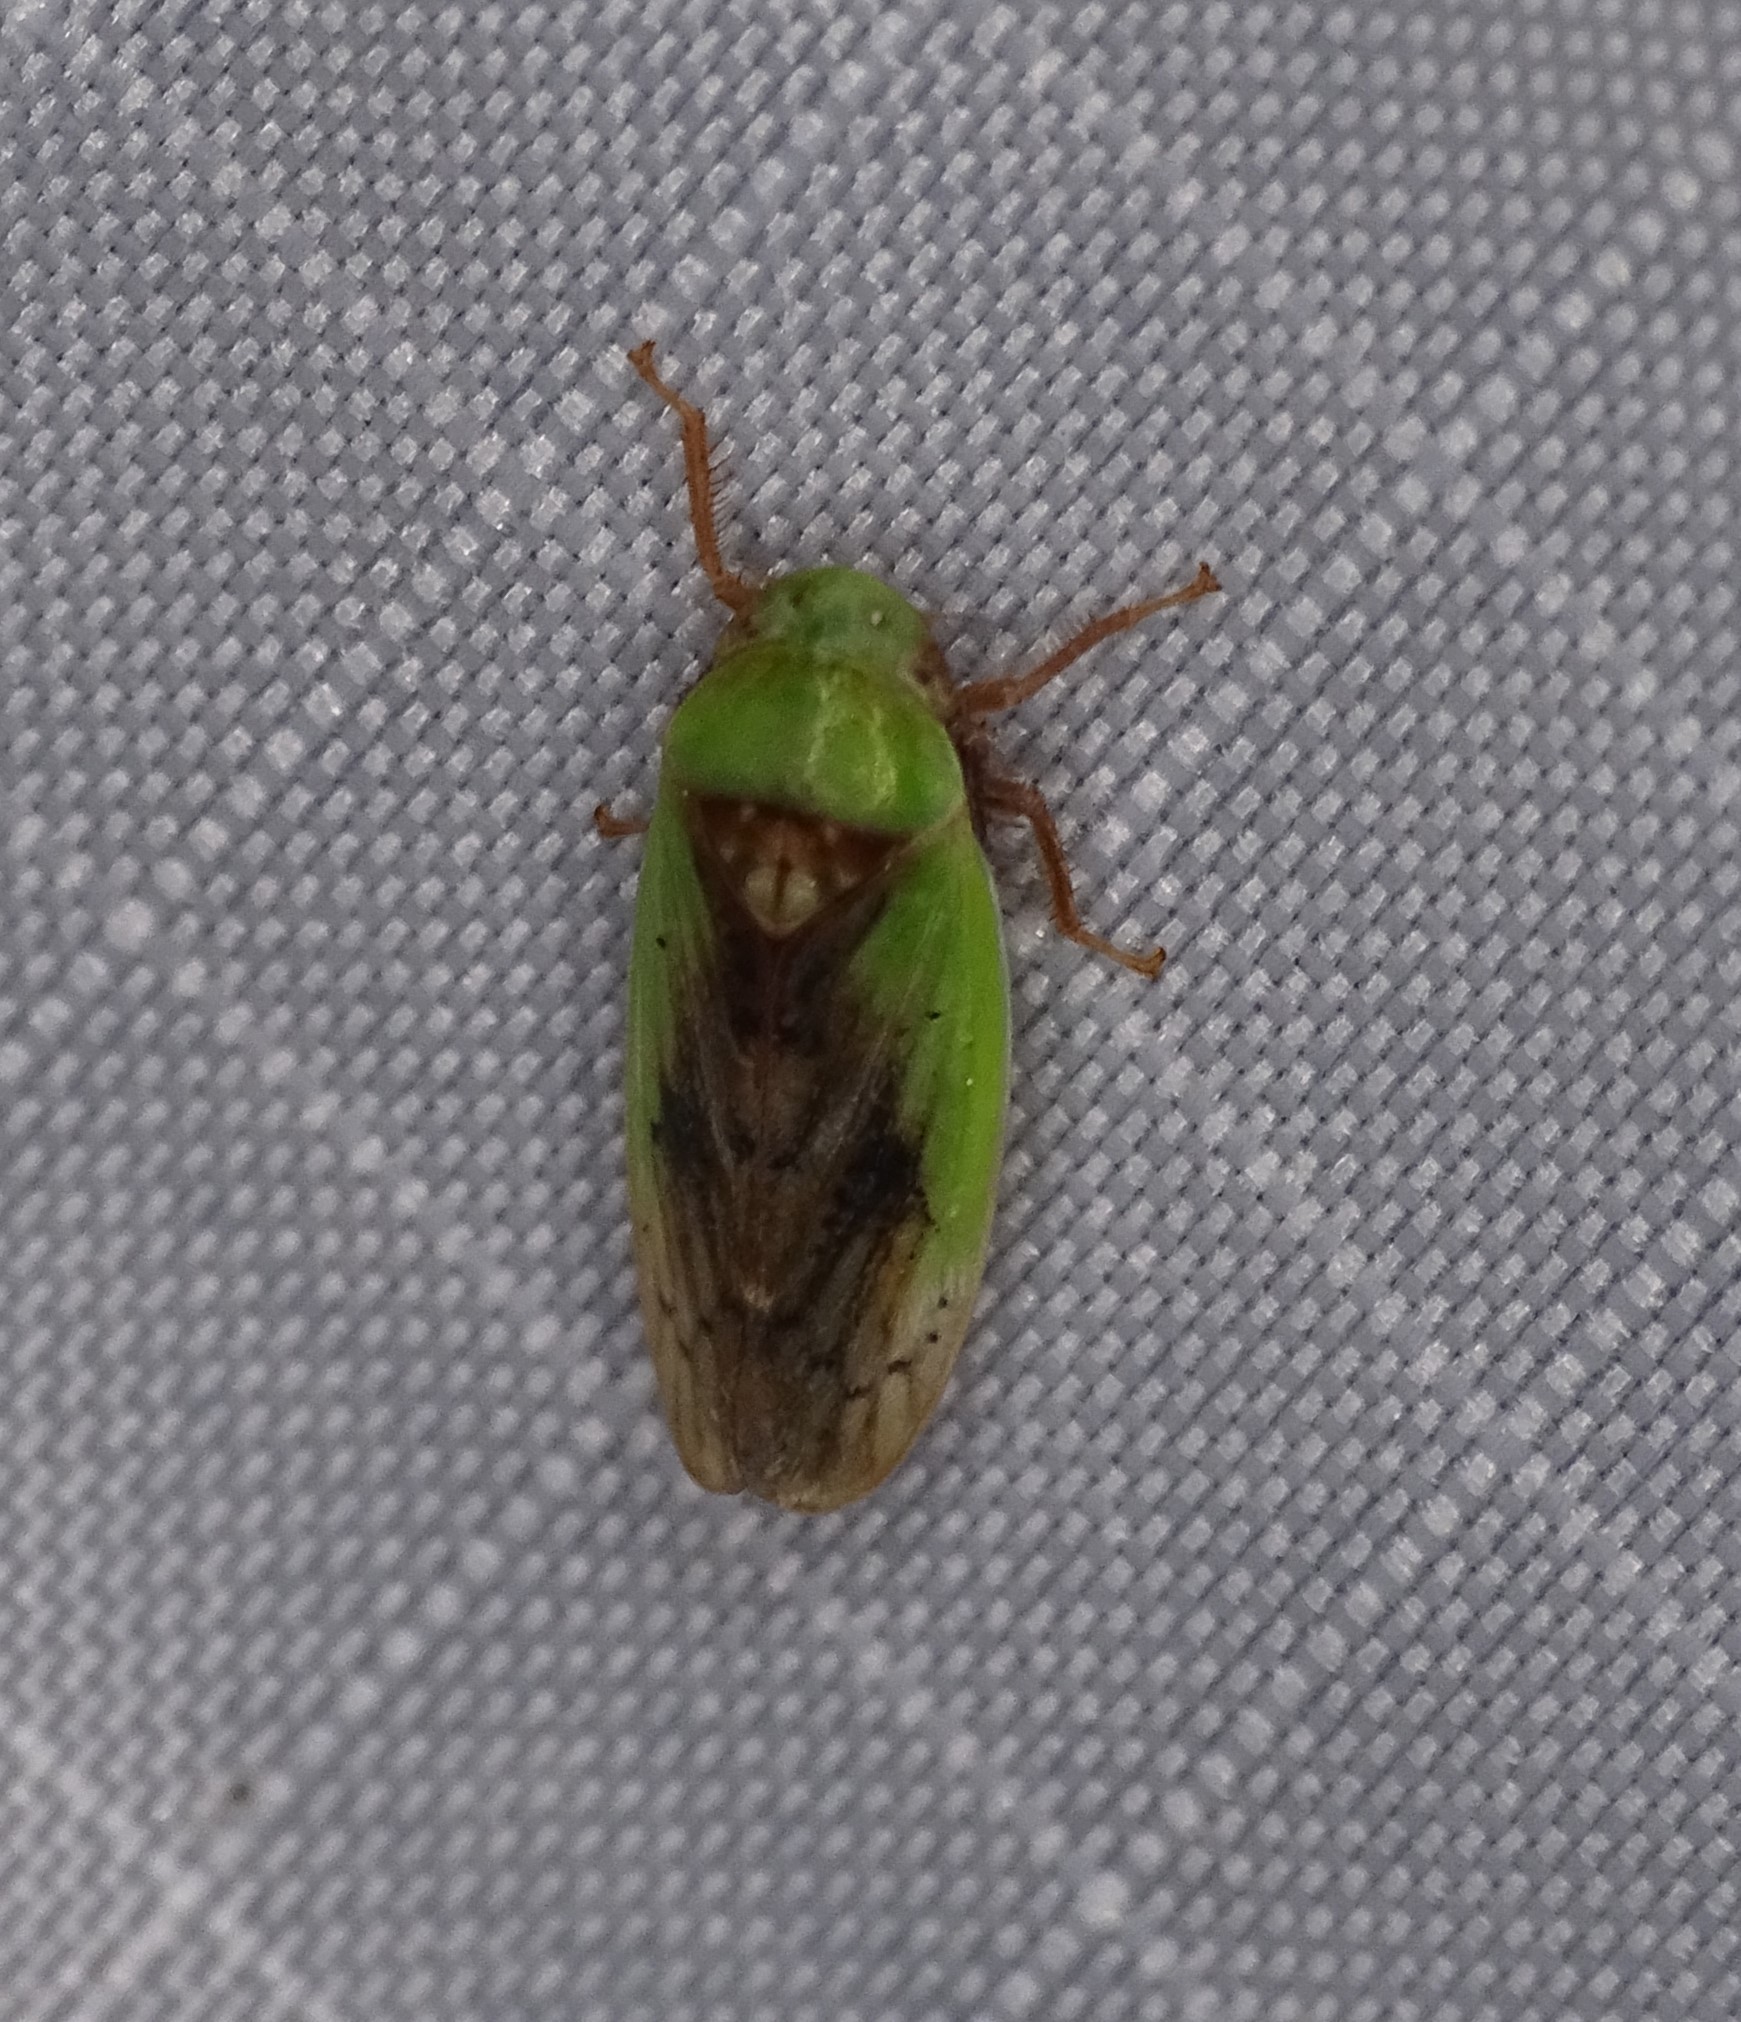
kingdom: Animalia
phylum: Arthropoda
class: Insecta
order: Hemiptera
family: Cicadellidae
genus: Ponana
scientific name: Ponana pectoralis
